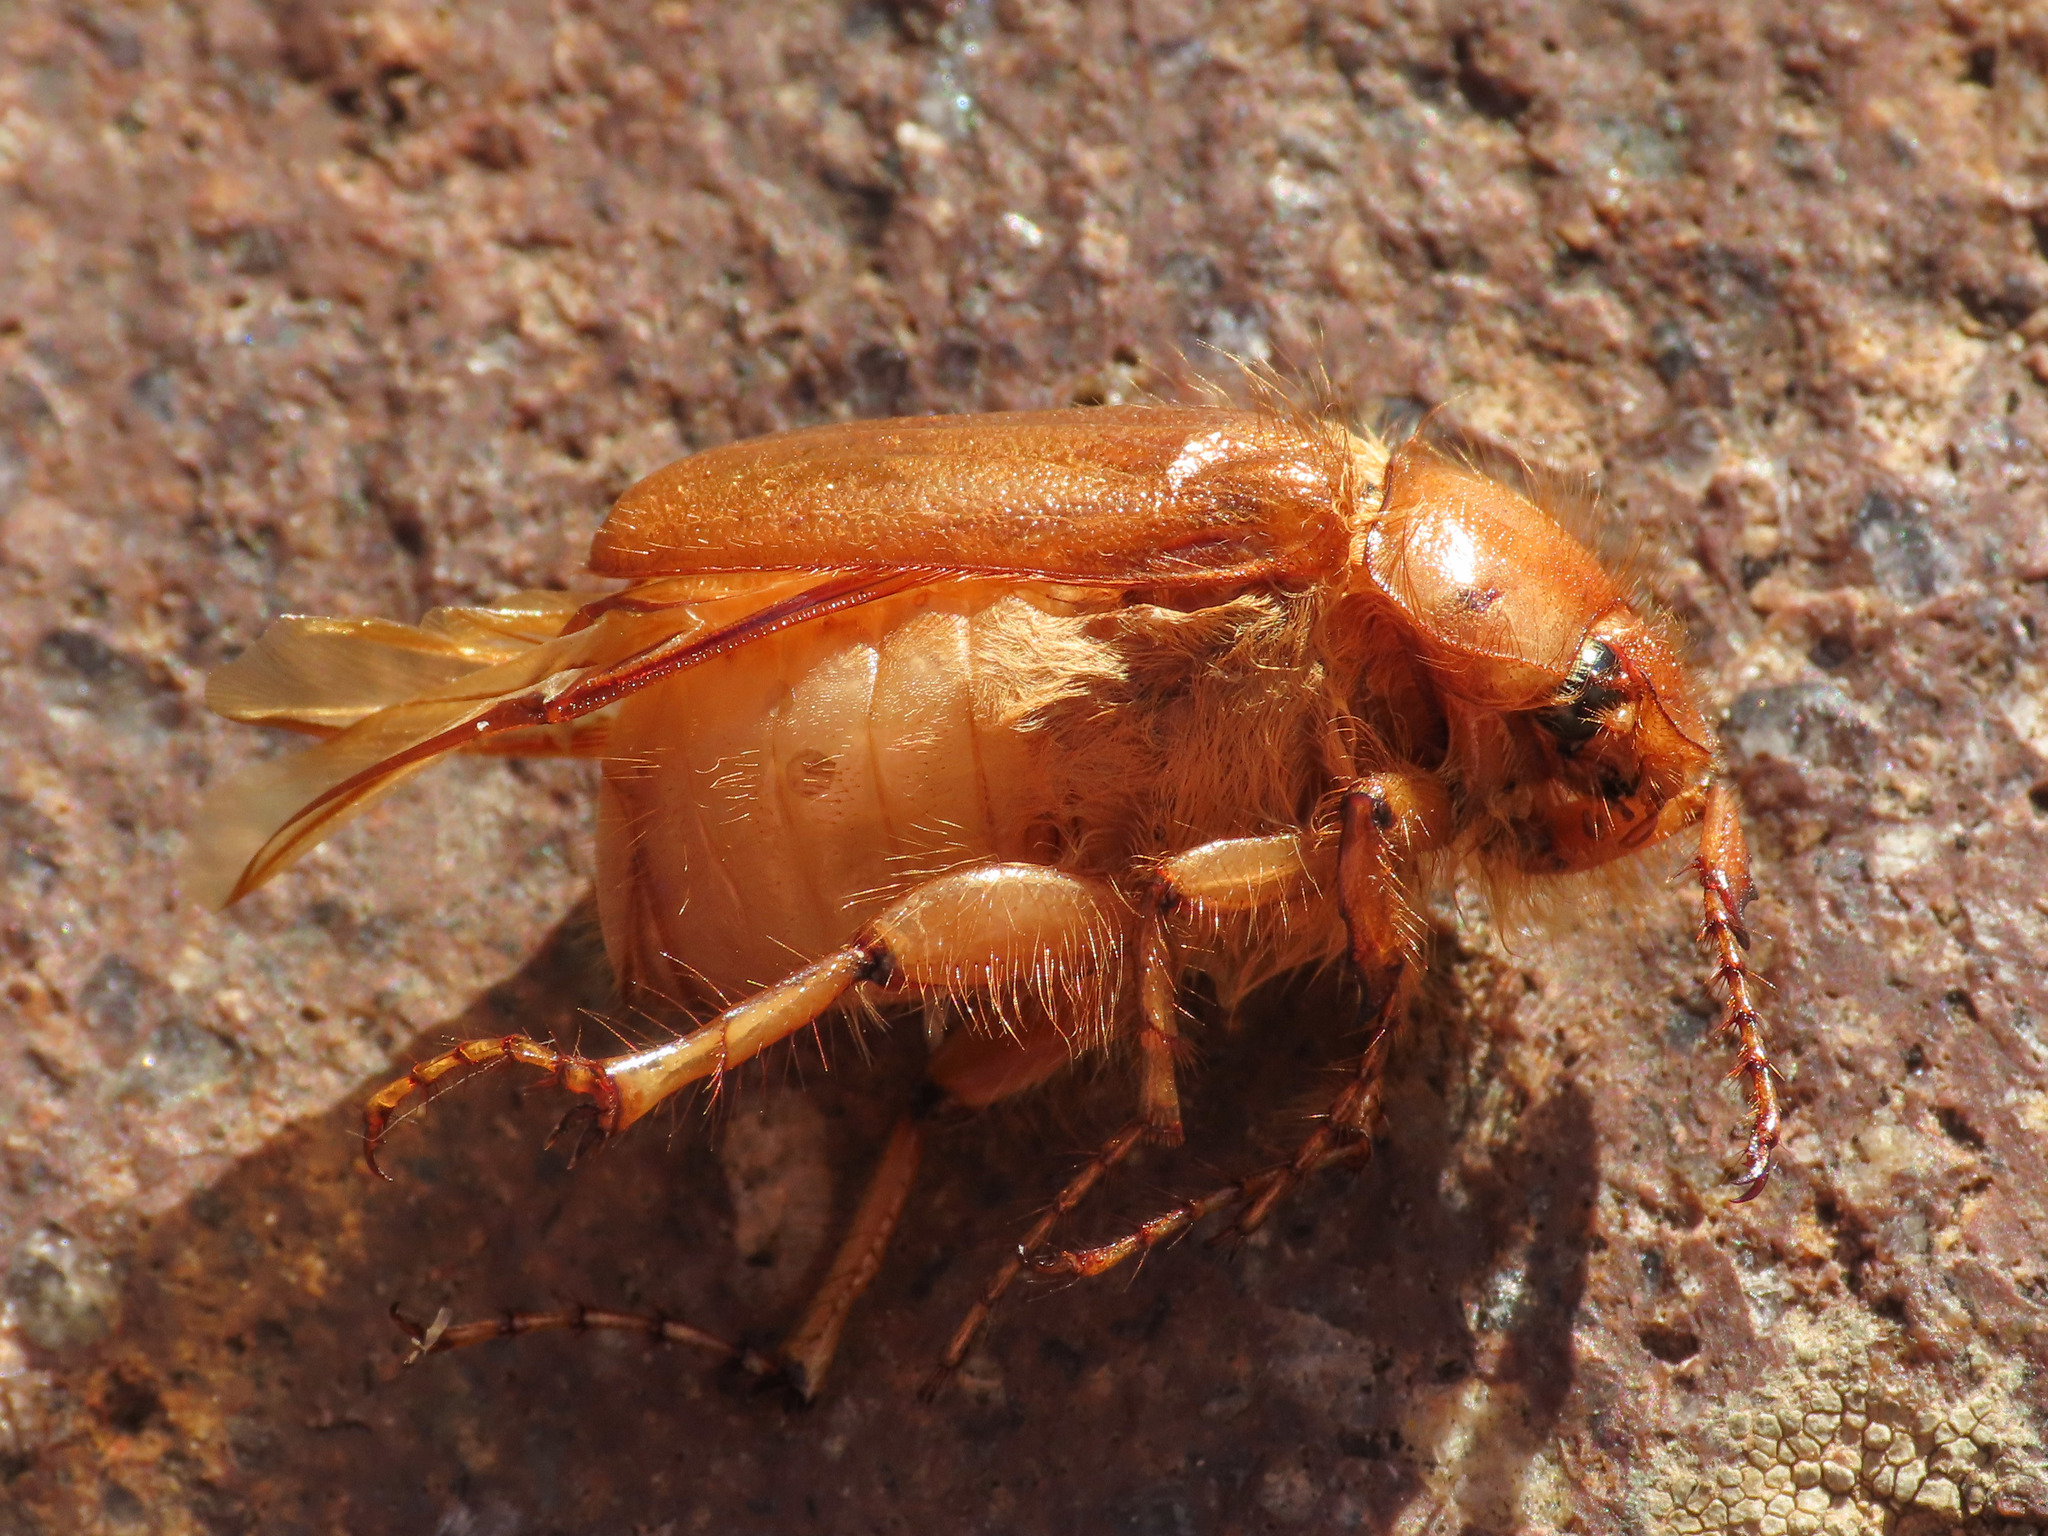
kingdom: Animalia
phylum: Arthropoda
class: Insecta
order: Coleoptera
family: Scarabaeidae
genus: Firminus
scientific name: Firminus ciliatus
